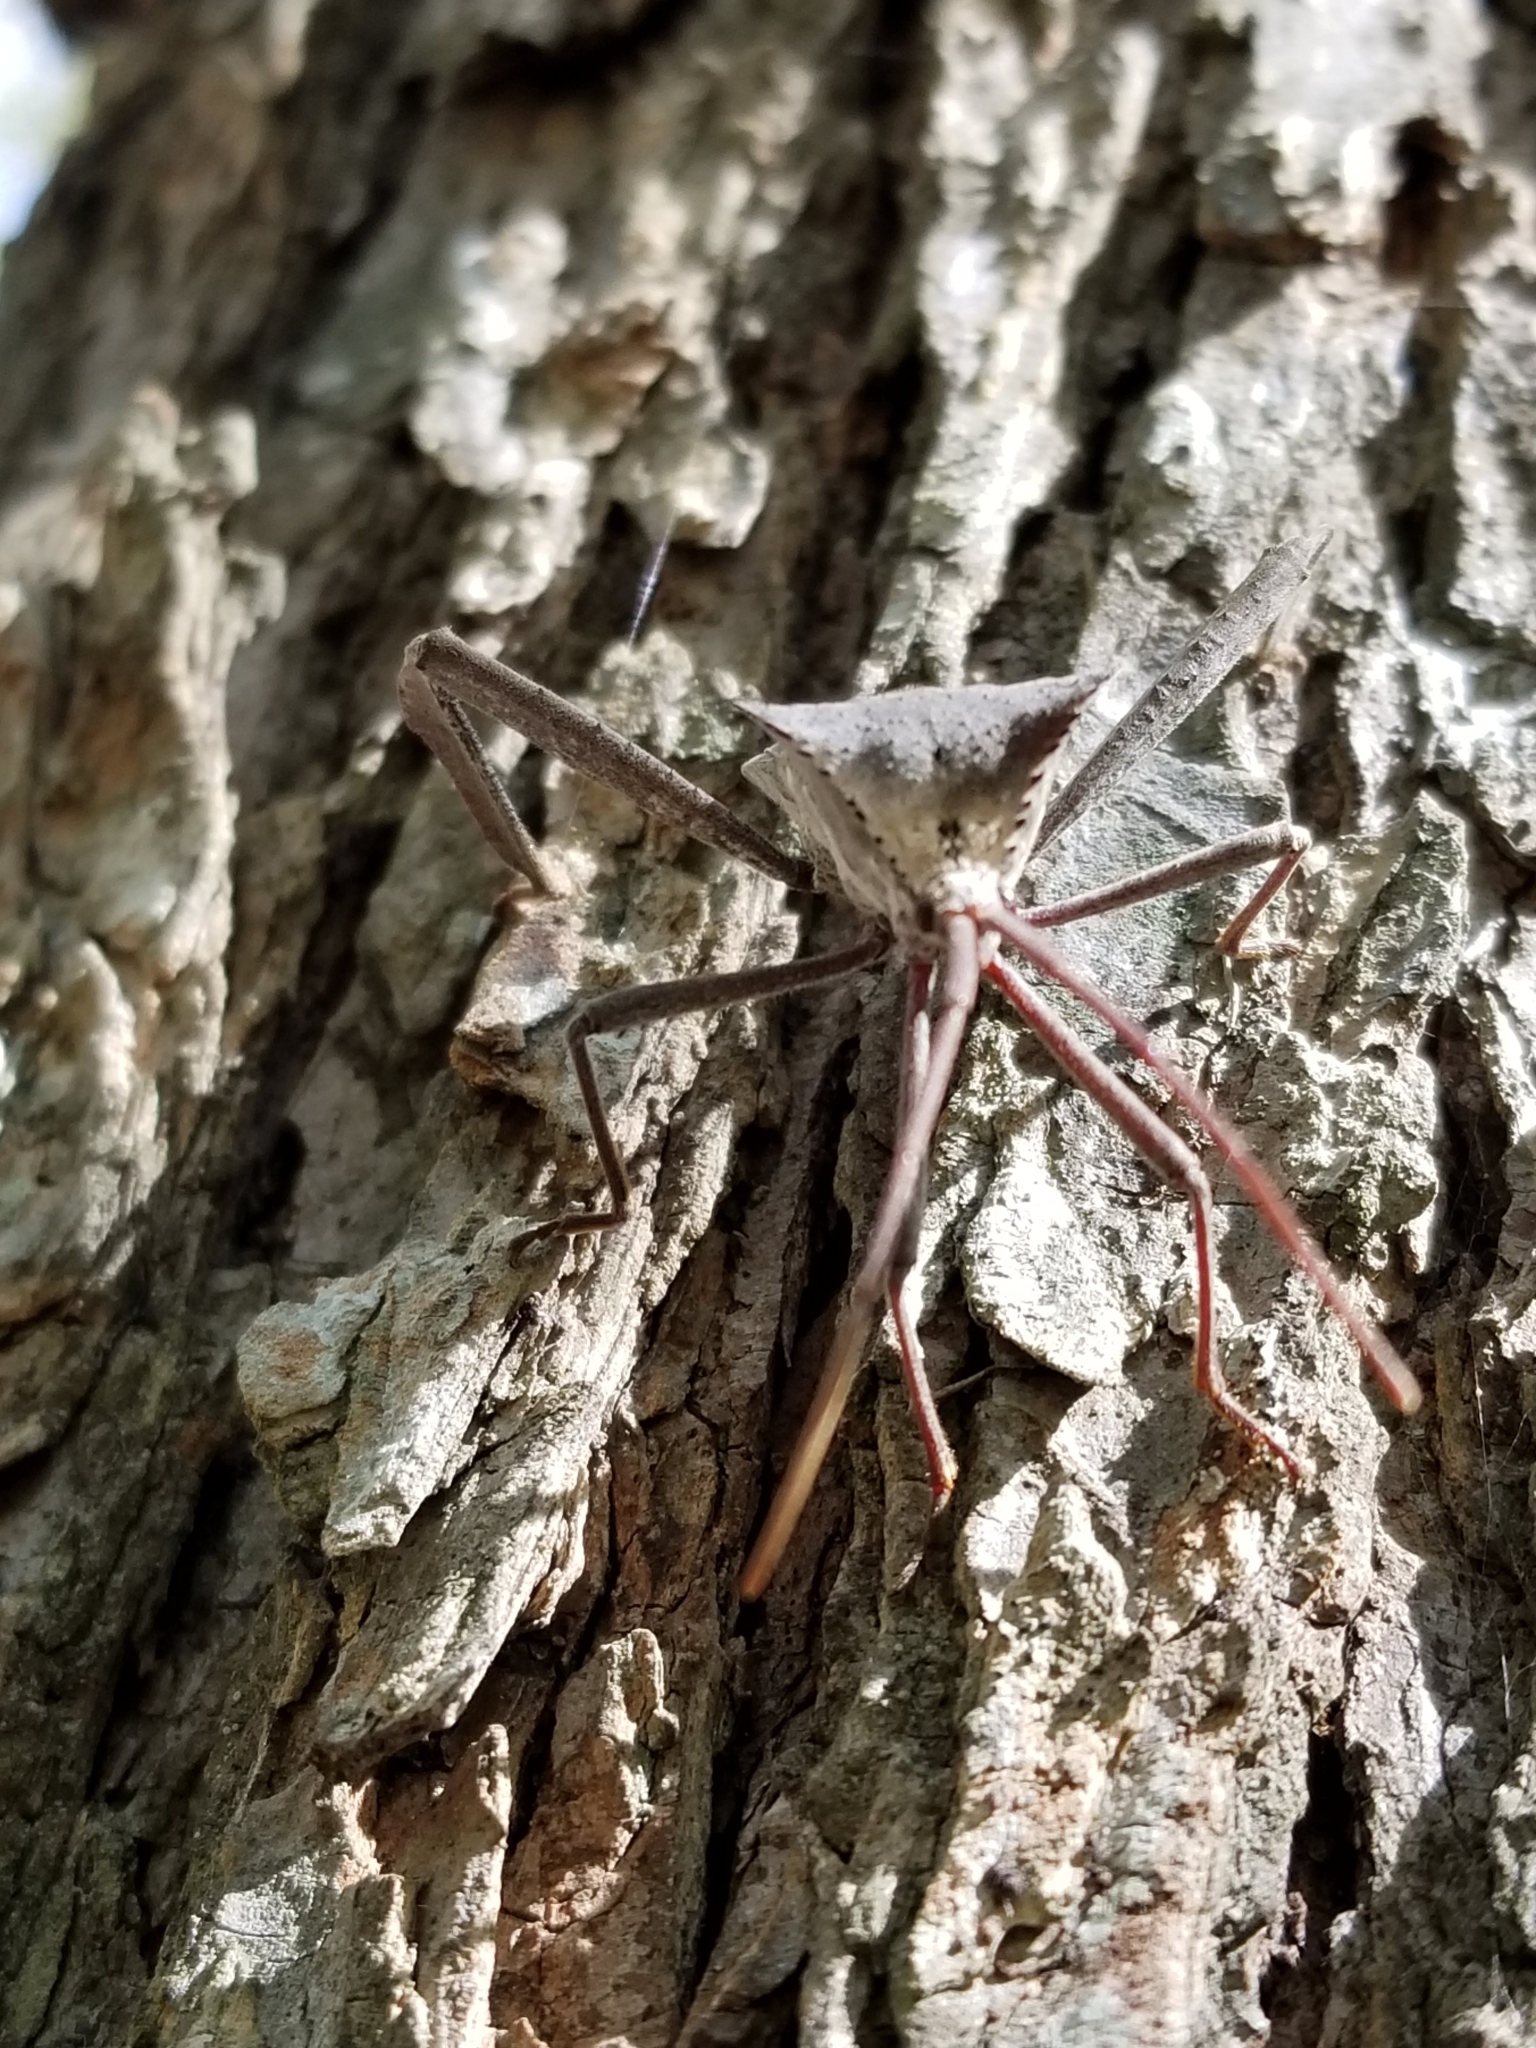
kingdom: Animalia
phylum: Arthropoda
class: Insecta
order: Hemiptera
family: Coreidae
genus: Acanthocephala
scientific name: Acanthocephala declivis
